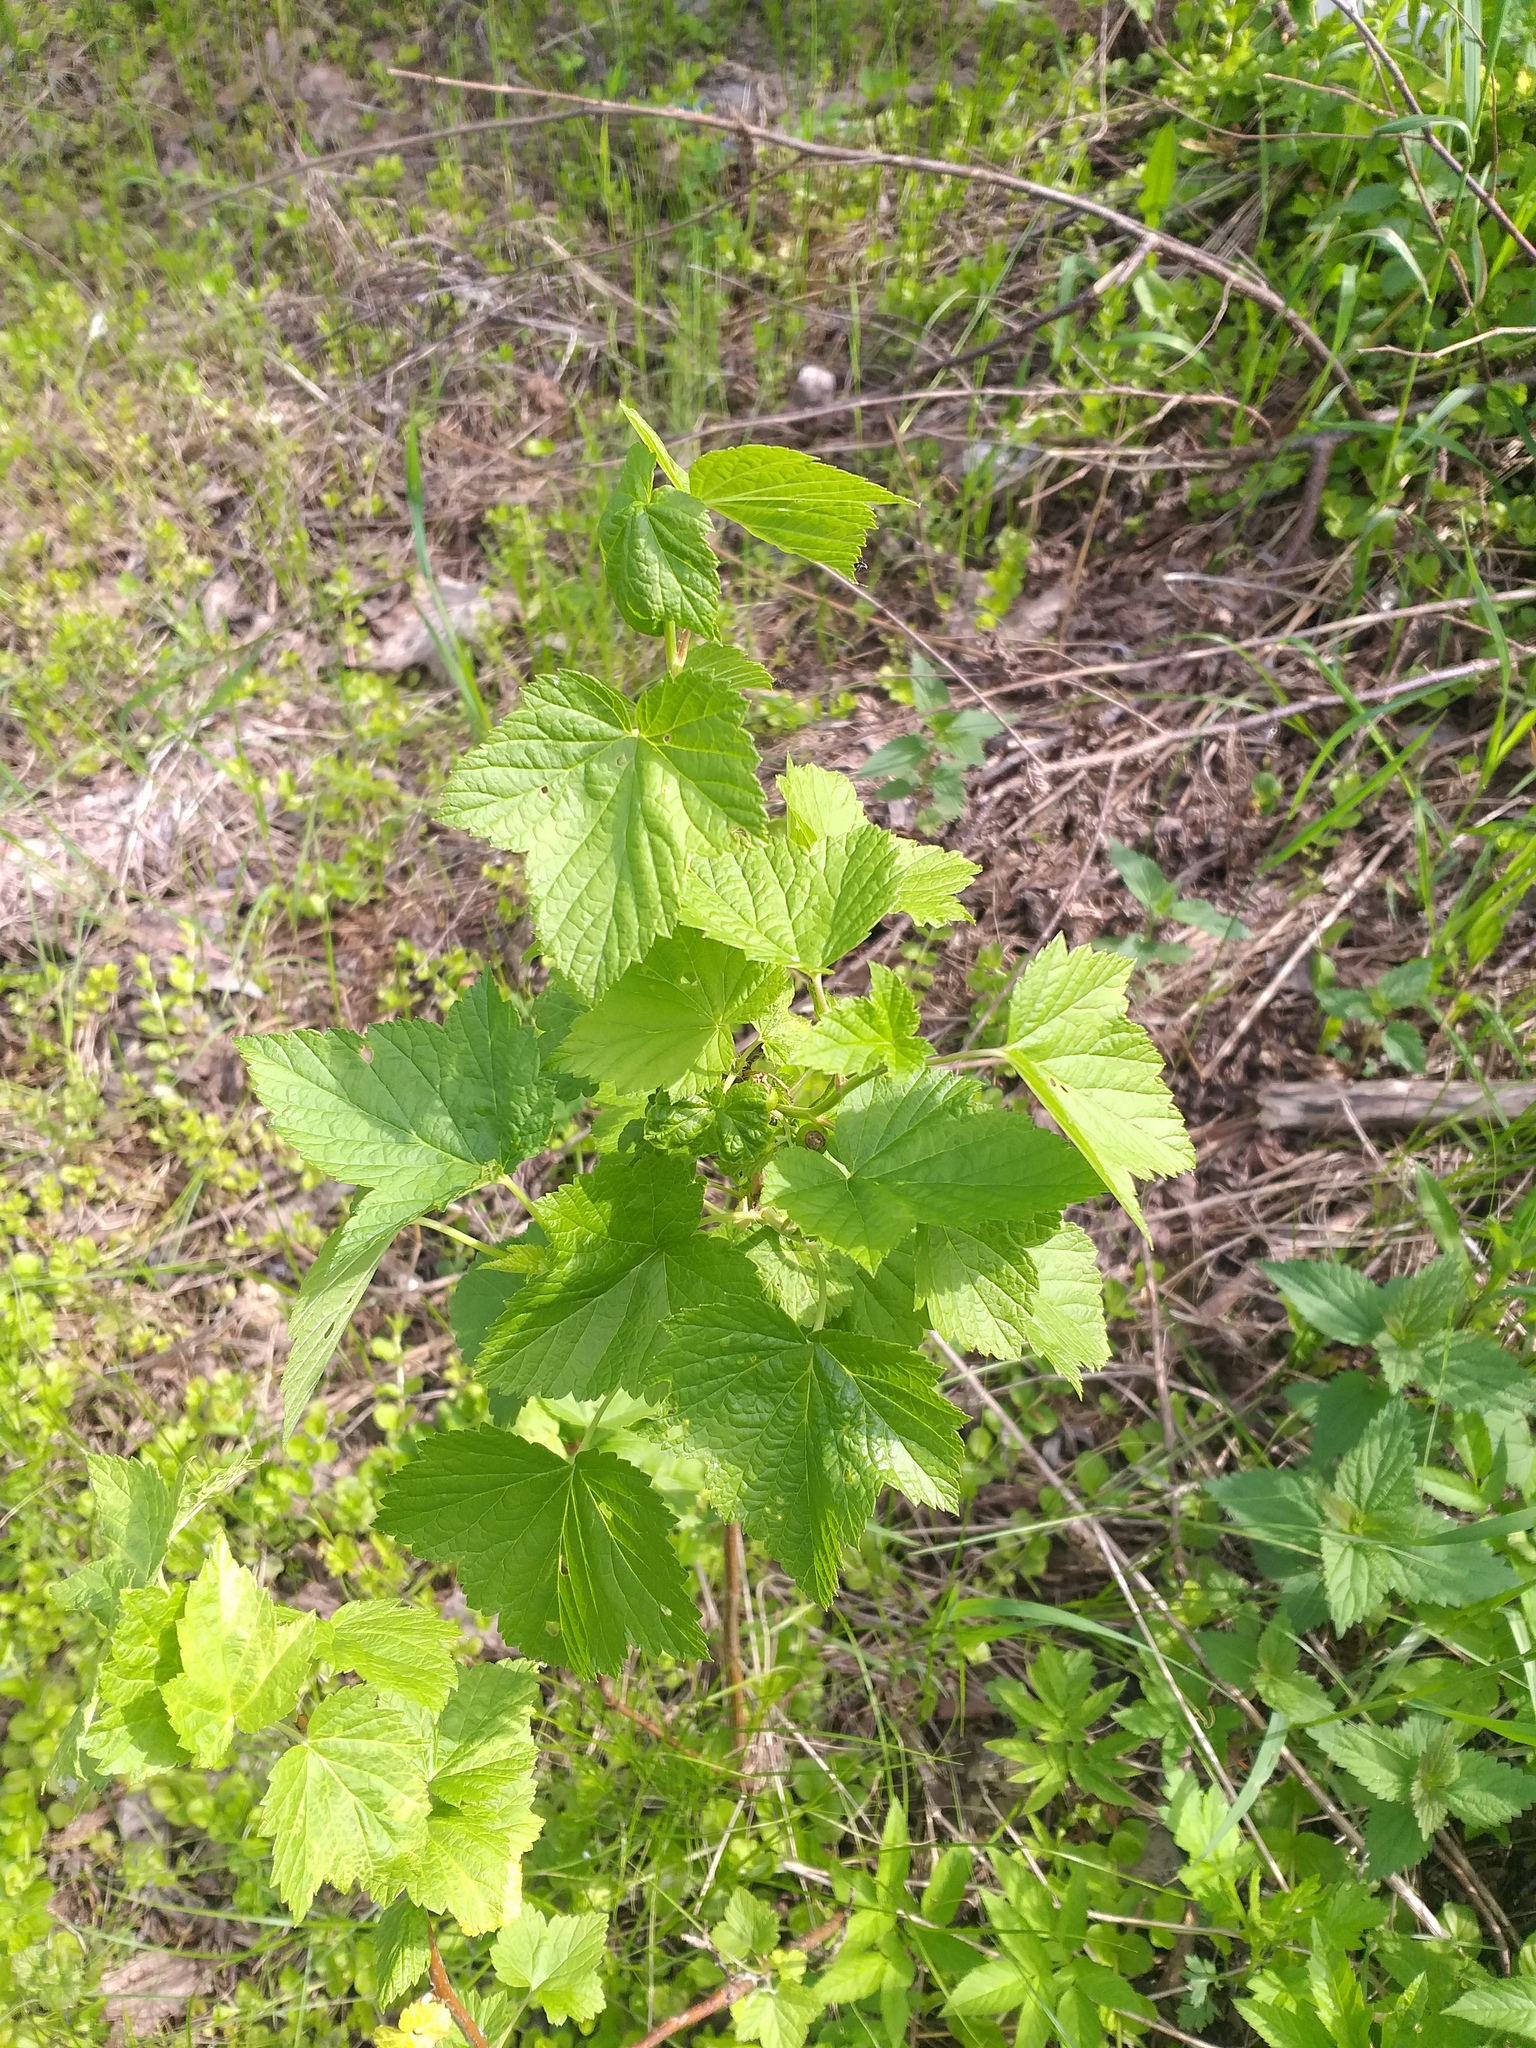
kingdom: Plantae
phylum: Tracheophyta
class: Magnoliopsida
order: Saxifragales
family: Grossulariaceae
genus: Ribes
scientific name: Ribes nigrum
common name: Black currant
